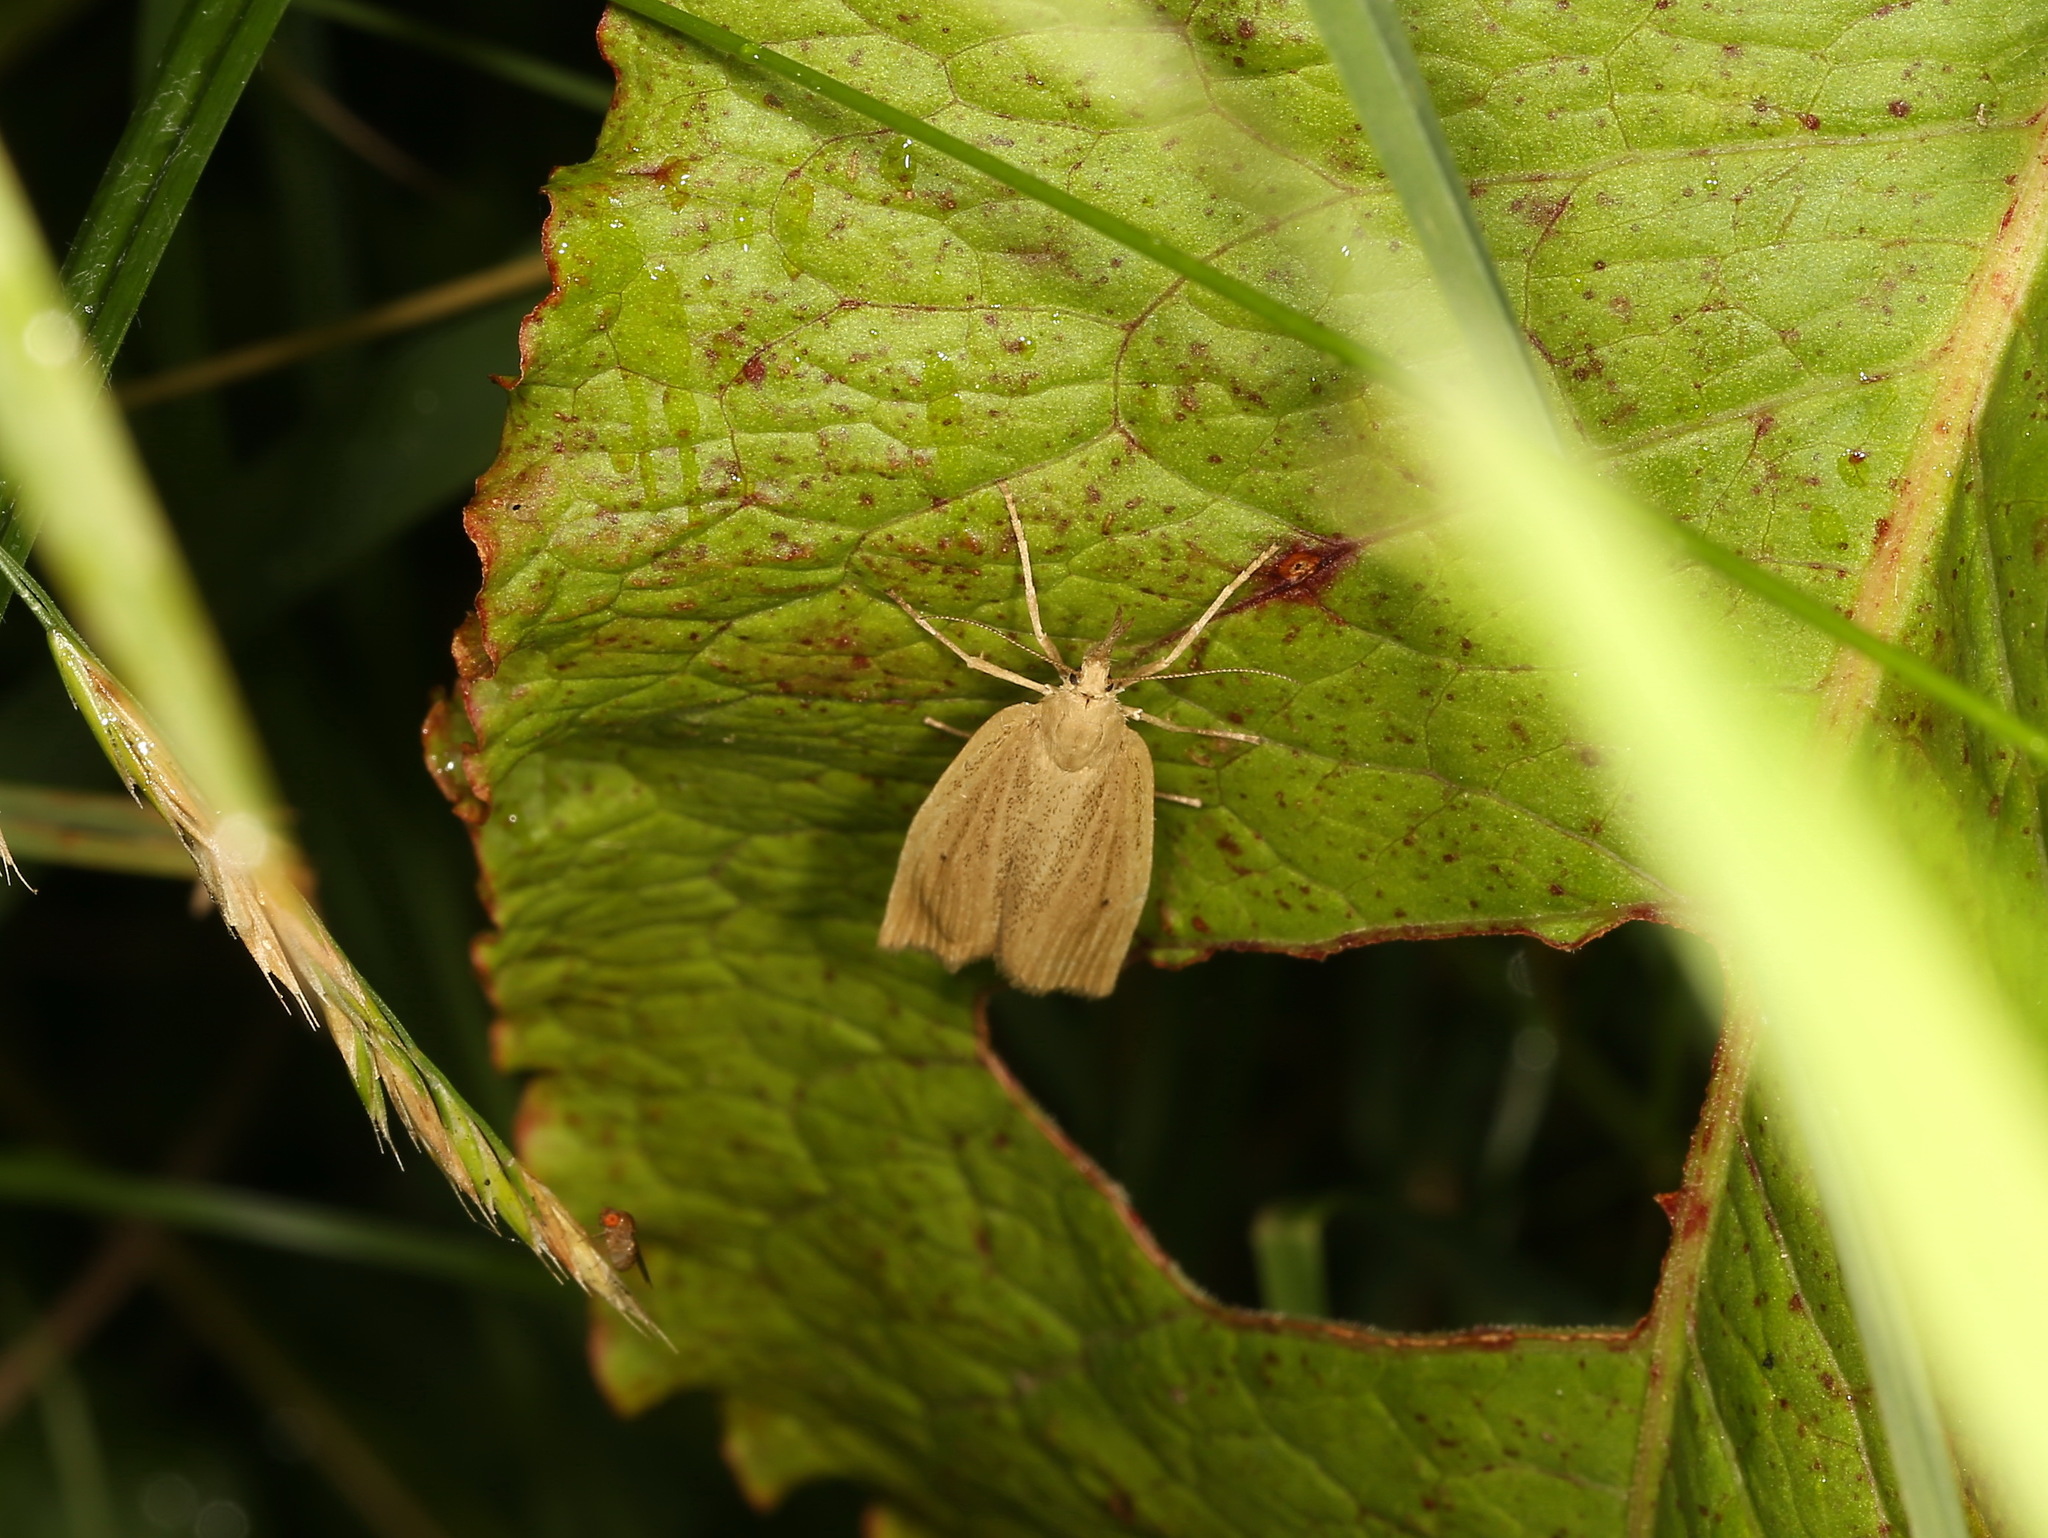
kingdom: Animalia
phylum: Arthropoda
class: Insecta
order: Lepidoptera
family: Crambidae
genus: Chilo
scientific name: Chilo phragmitella
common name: Reed veneer
